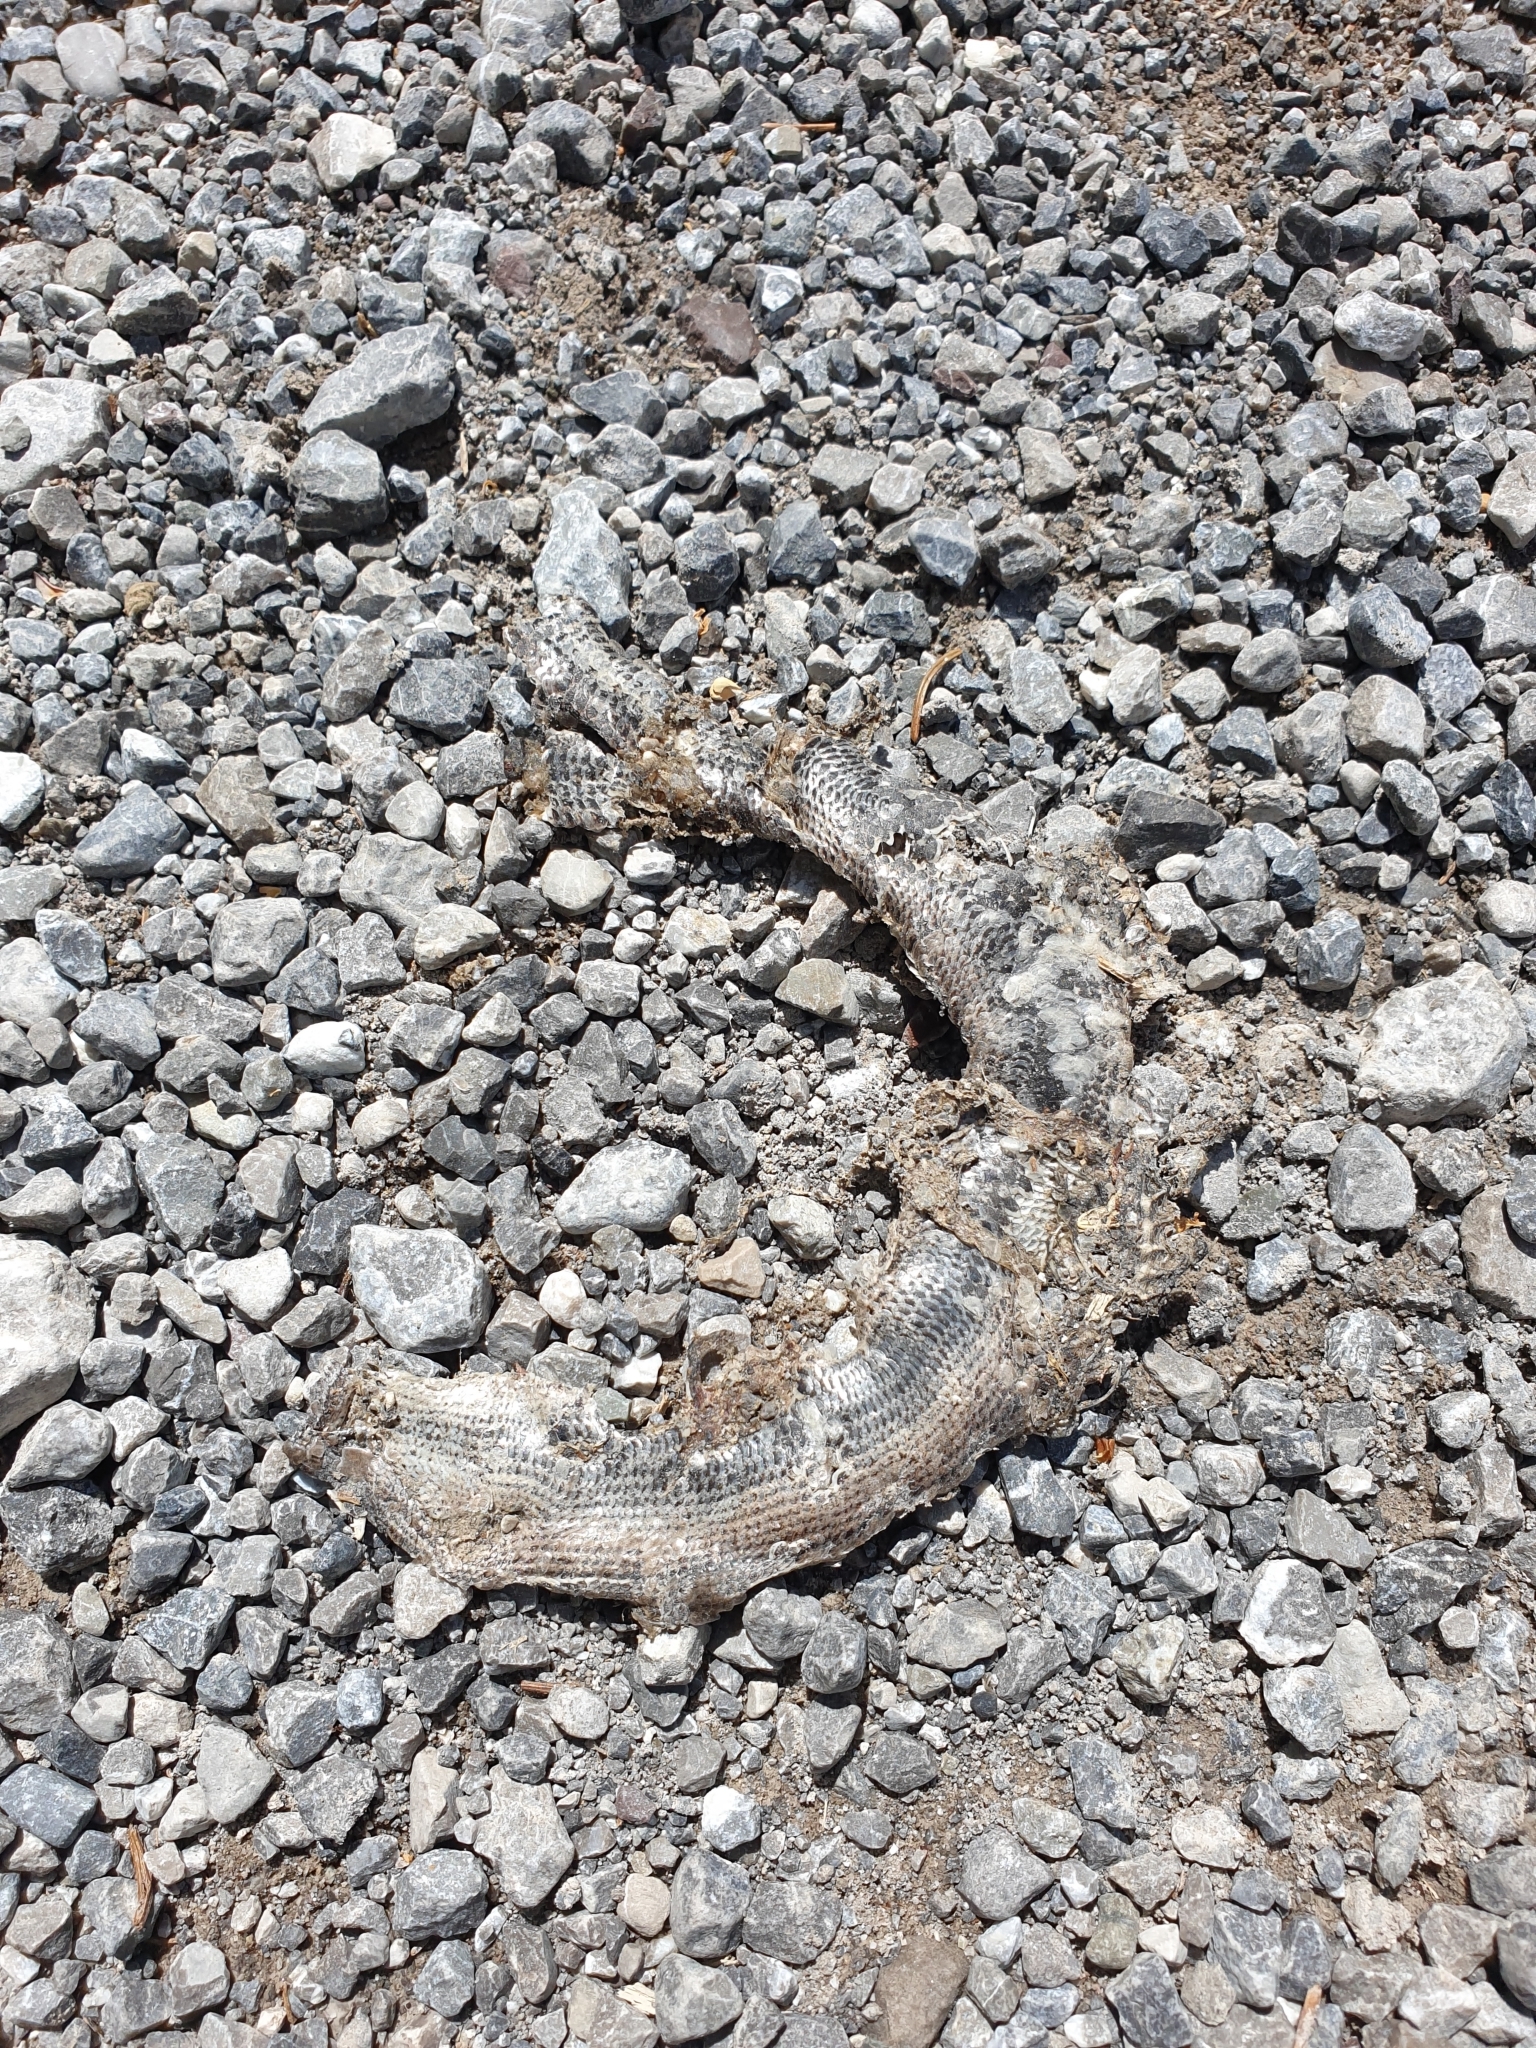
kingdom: Animalia
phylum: Chordata
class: Squamata
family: Anguidae
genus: Anguis
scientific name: Anguis fragilis
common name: Slow worm
